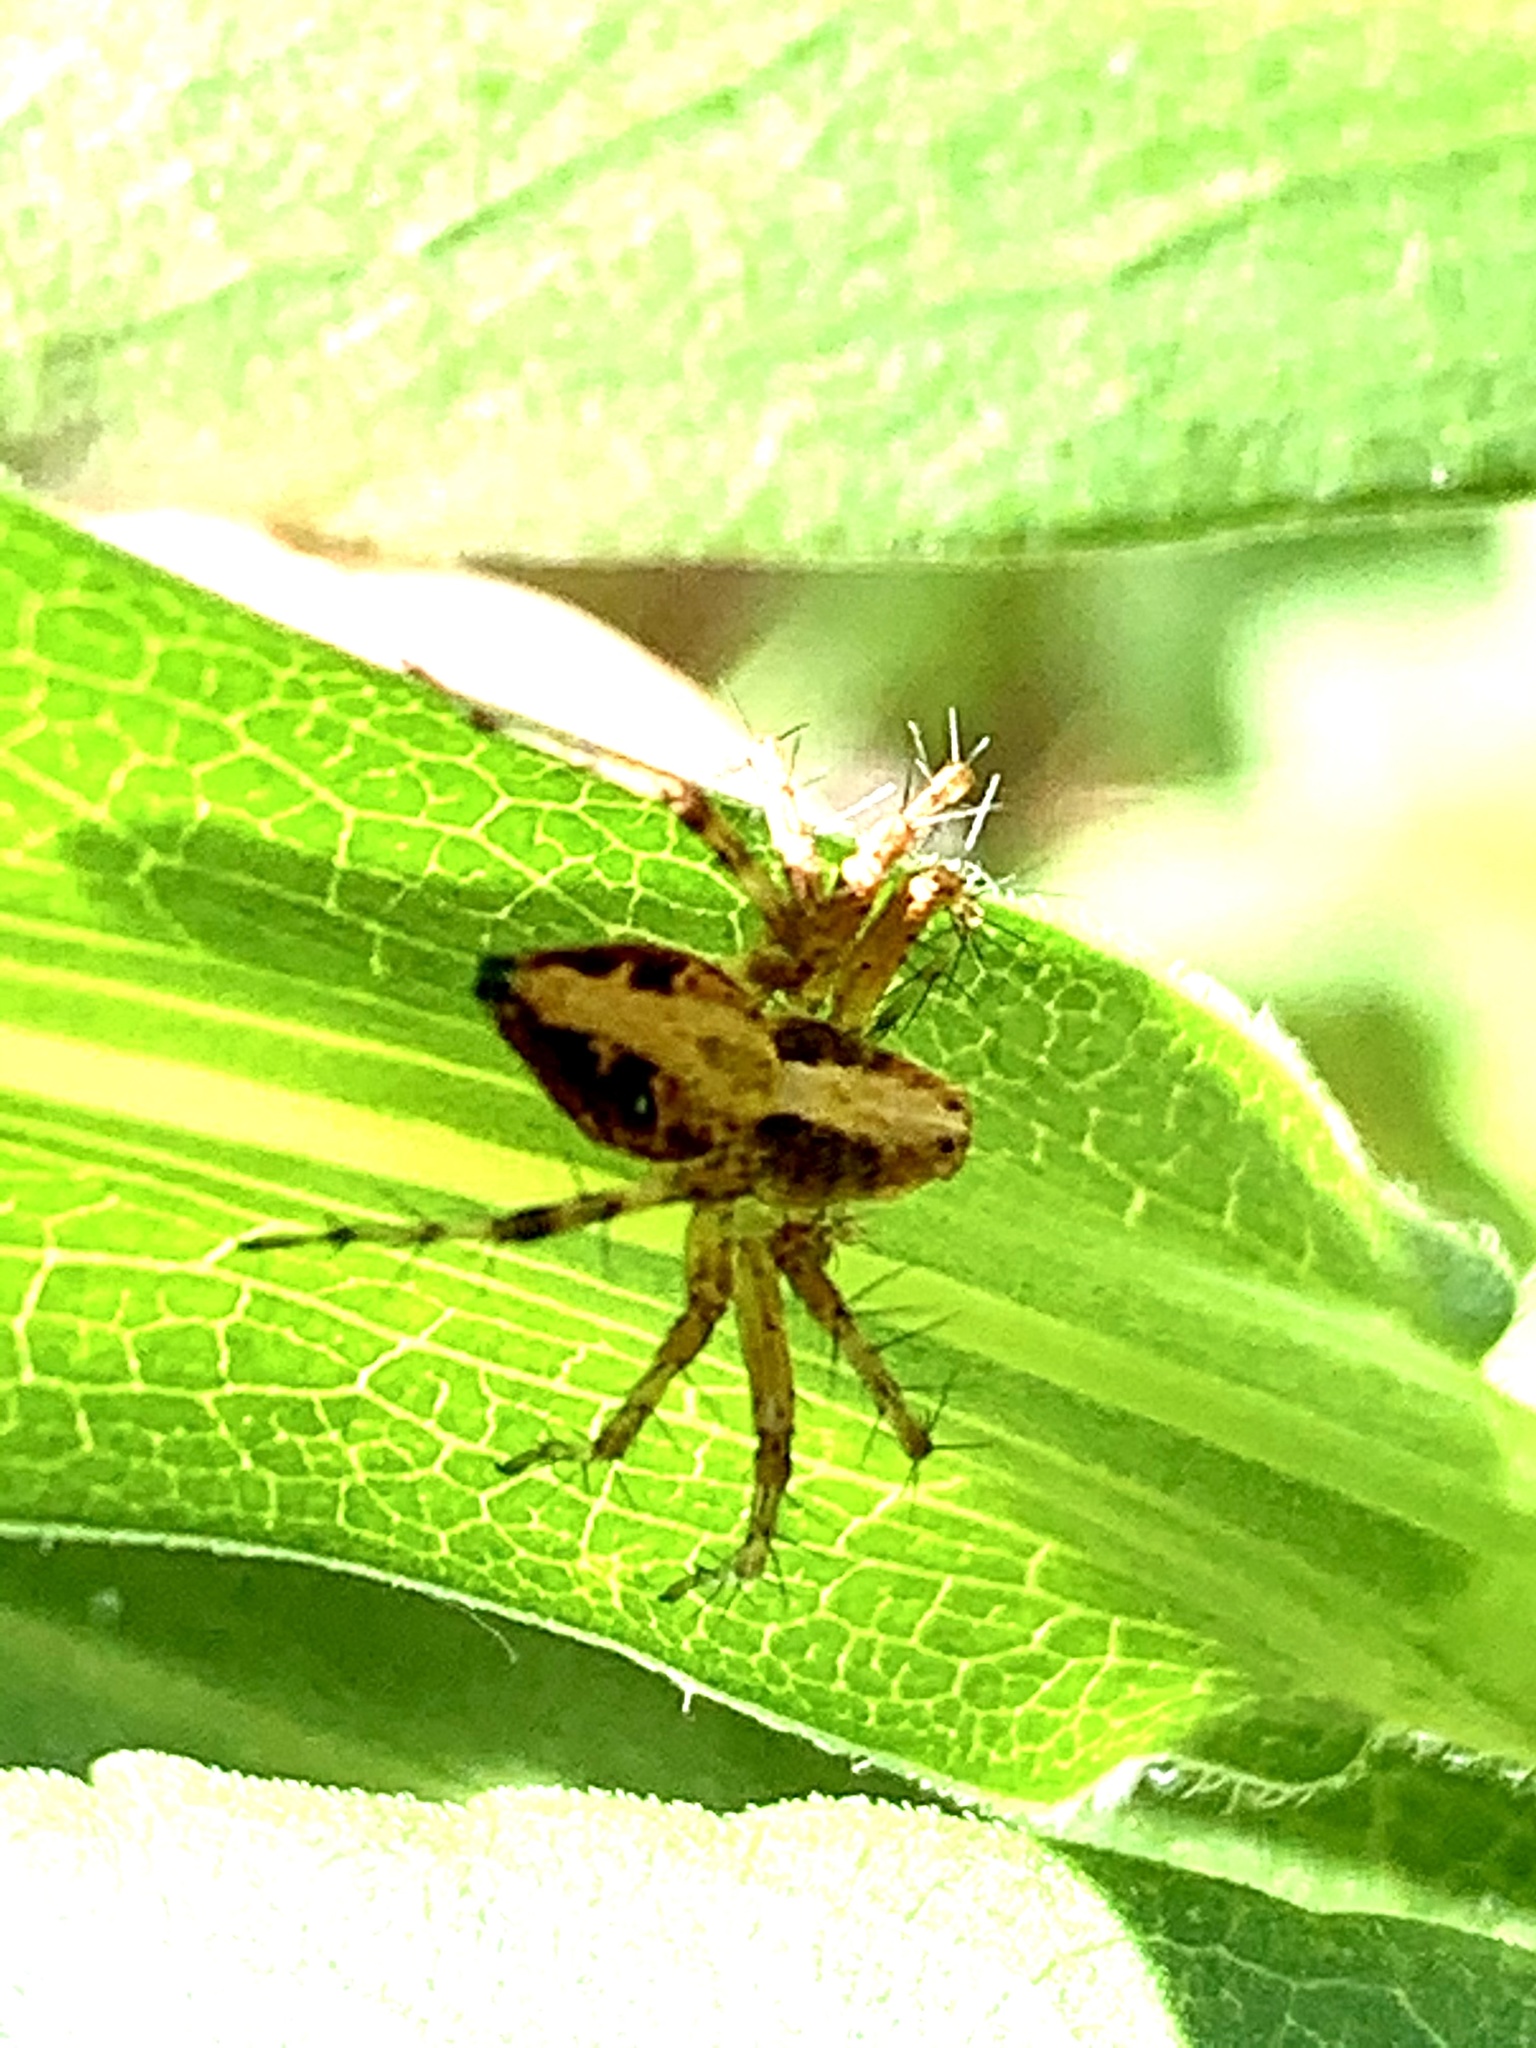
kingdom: Animalia
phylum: Arthropoda
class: Arachnida
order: Araneae
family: Oxyopidae
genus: Oxyopes
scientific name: Oxyopes scalaris
